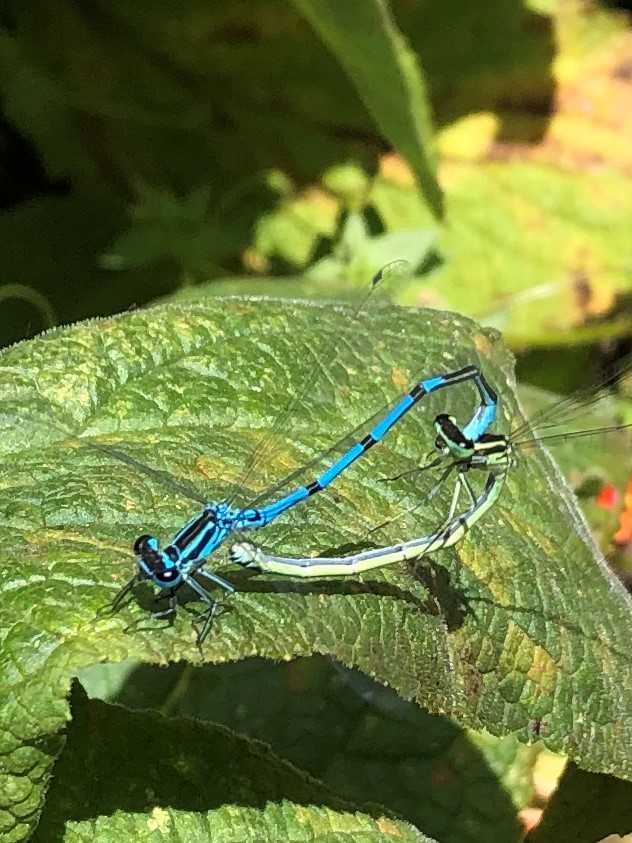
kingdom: Animalia
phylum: Arthropoda
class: Insecta
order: Odonata
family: Coenagrionidae
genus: Coenagrion
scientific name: Coenagrion puella
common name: Azure damselfly
